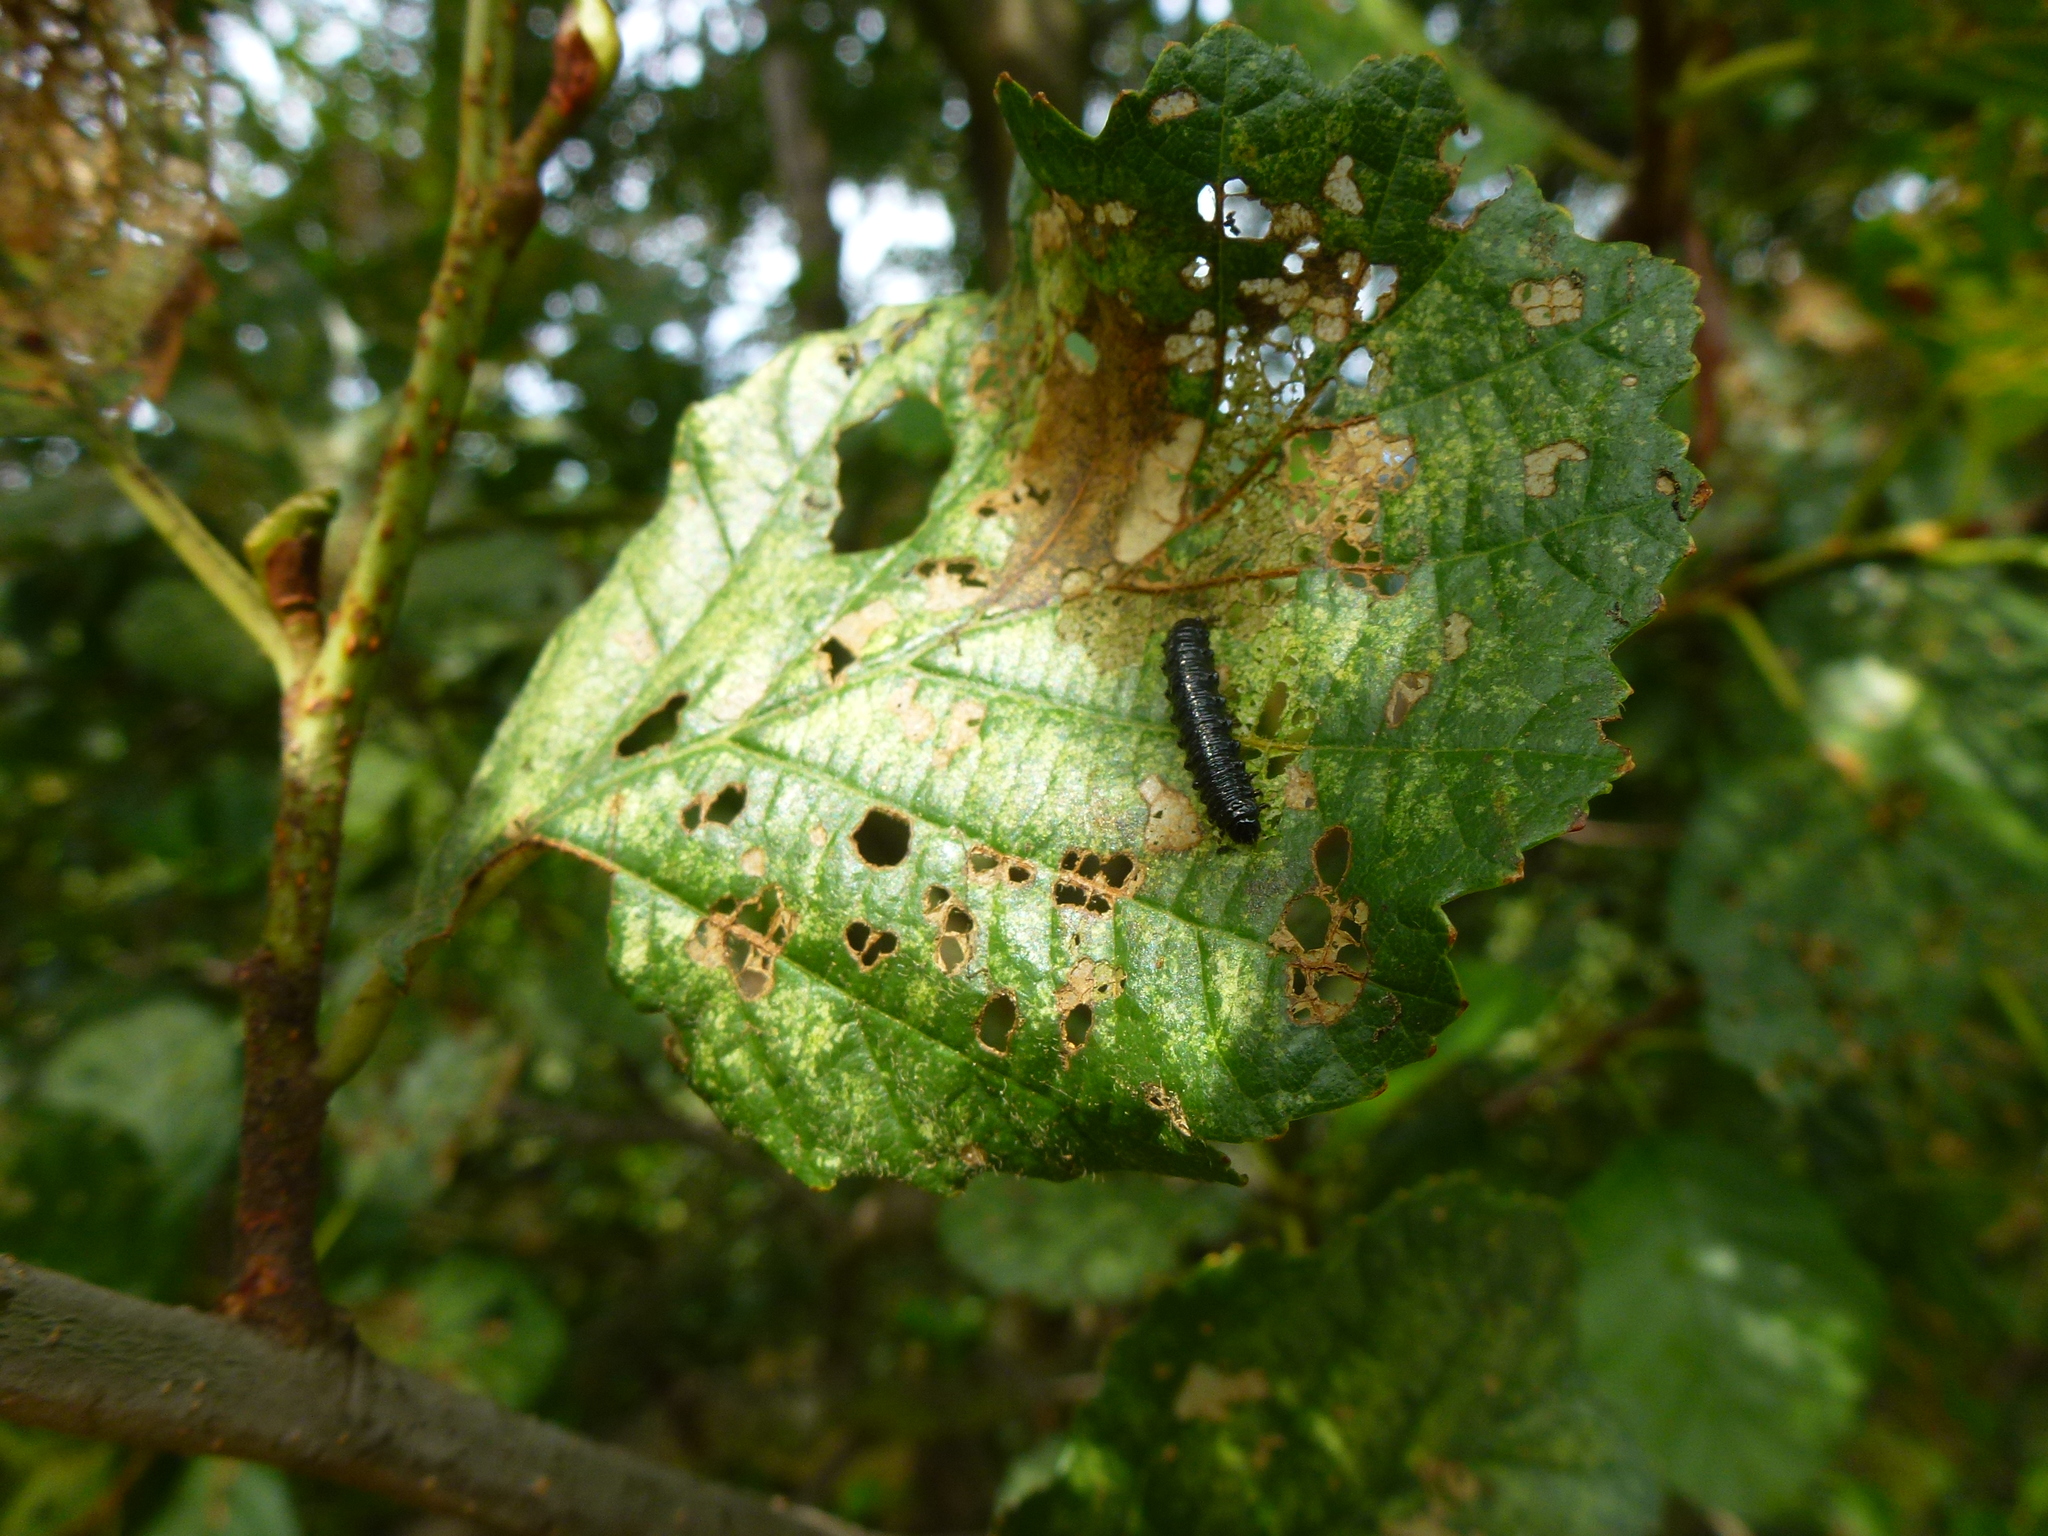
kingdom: Animalia
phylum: Arthropoda
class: Insecta
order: Coleoptera
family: Chrysomelidae
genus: Agelastica
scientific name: Agelastica alni
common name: Alder leaf beetle
